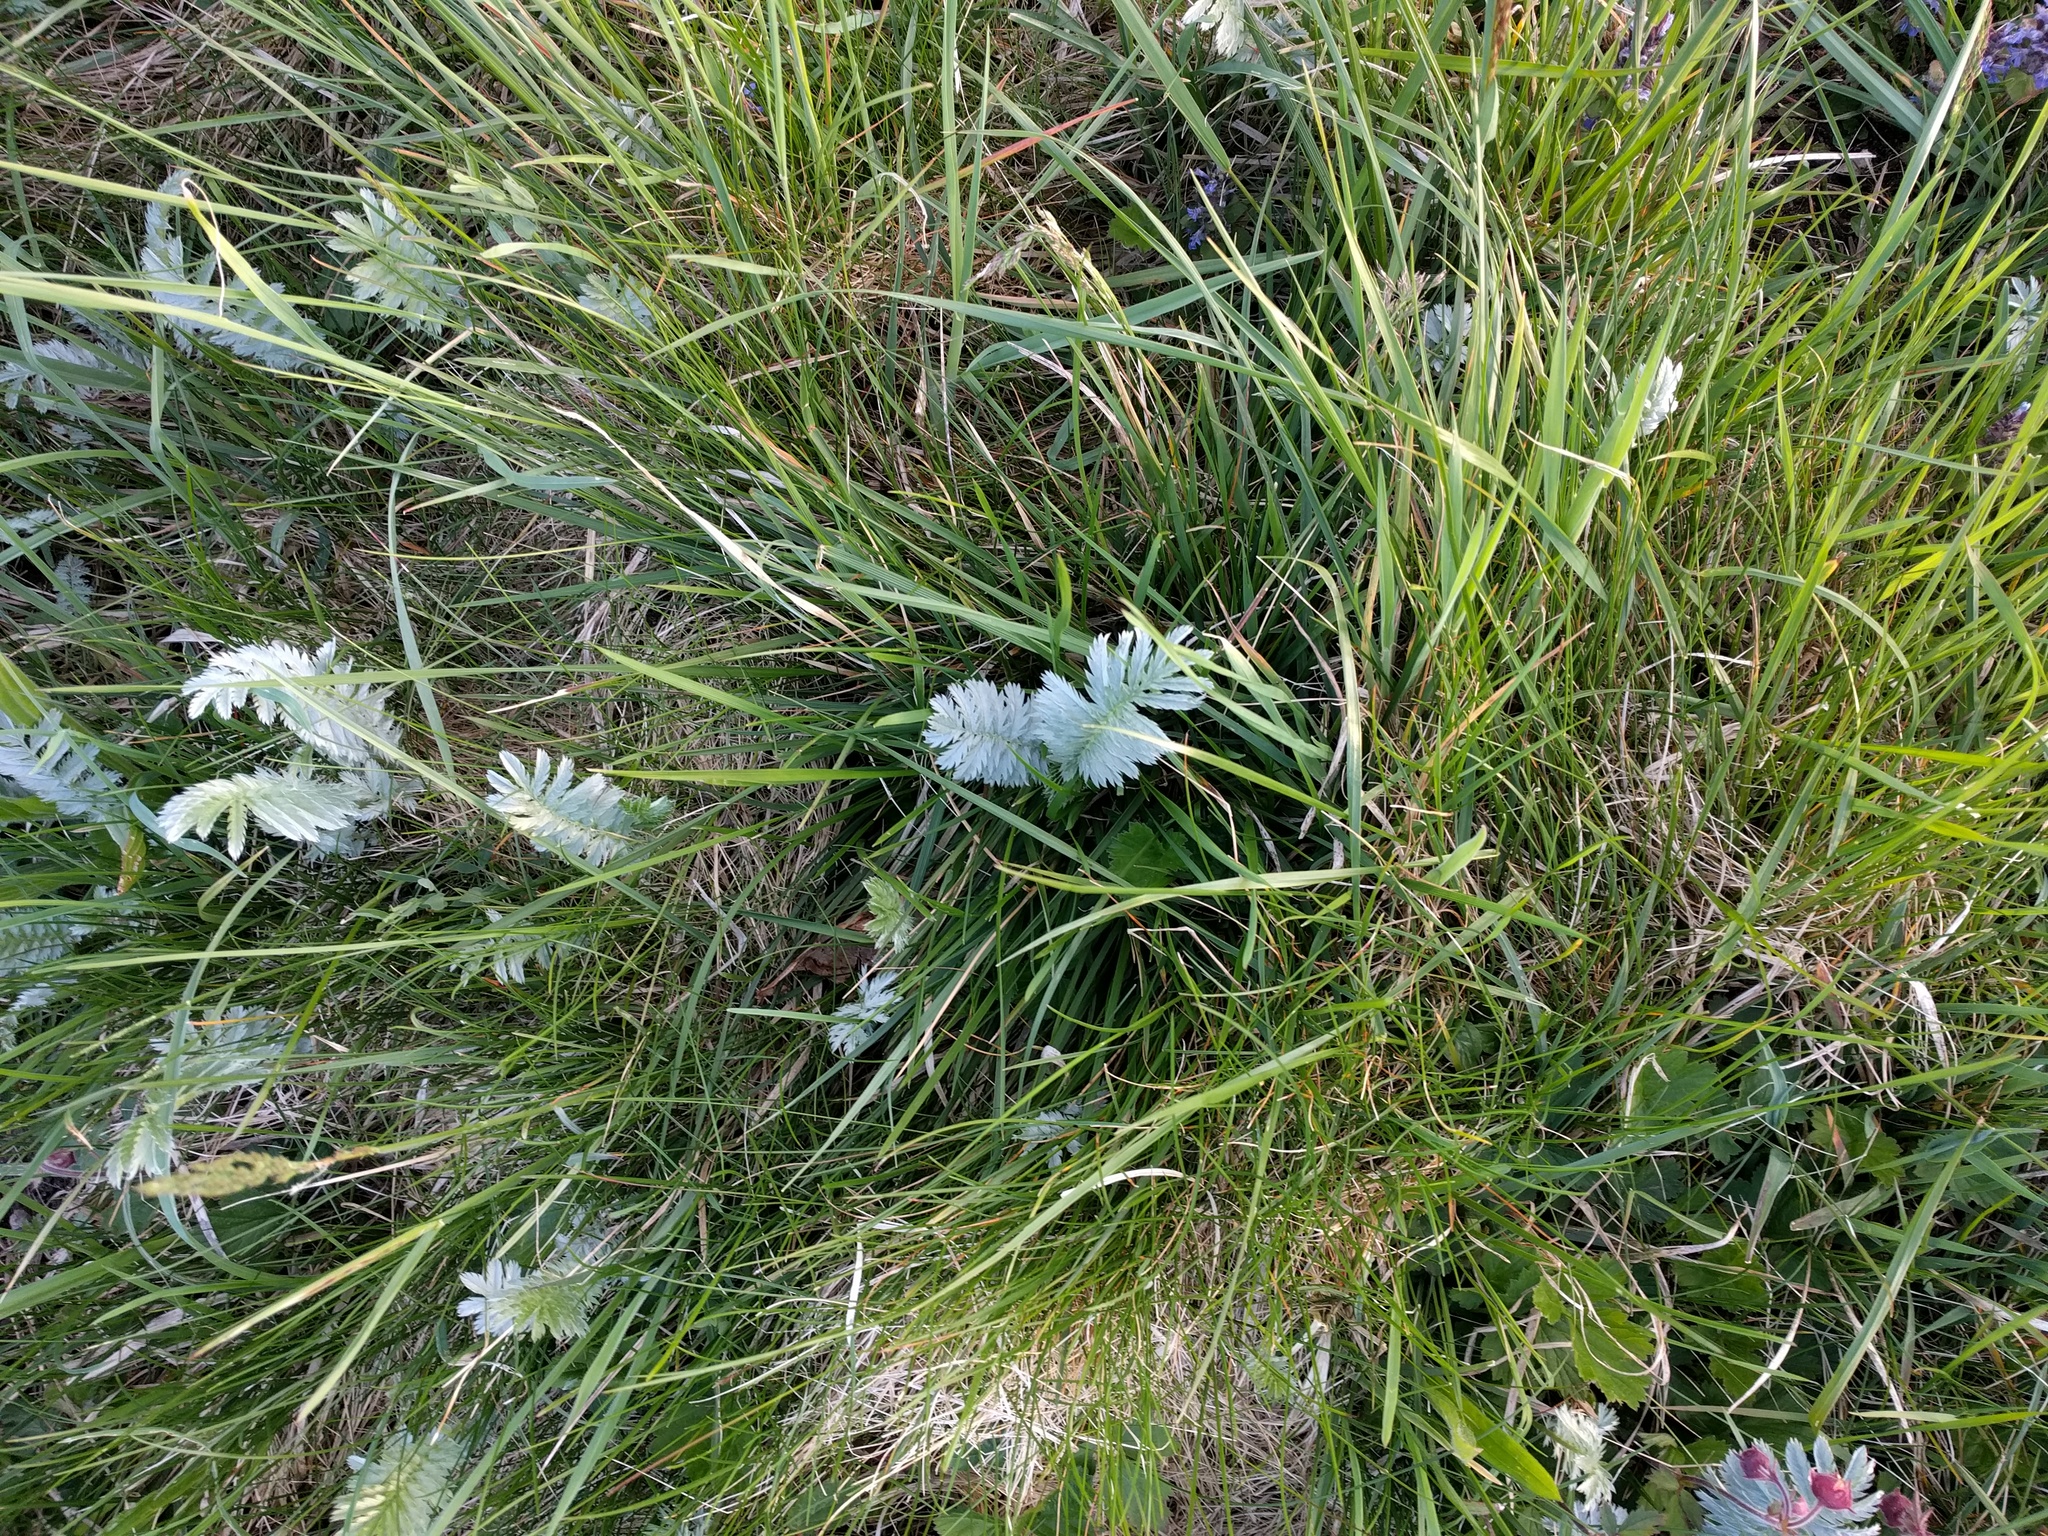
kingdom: Plantae
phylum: Tracheophyta
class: Magnoliopsida
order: Rosales
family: Rosaceae
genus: Argentina
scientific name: Argentina anserina
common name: Common silverweed
